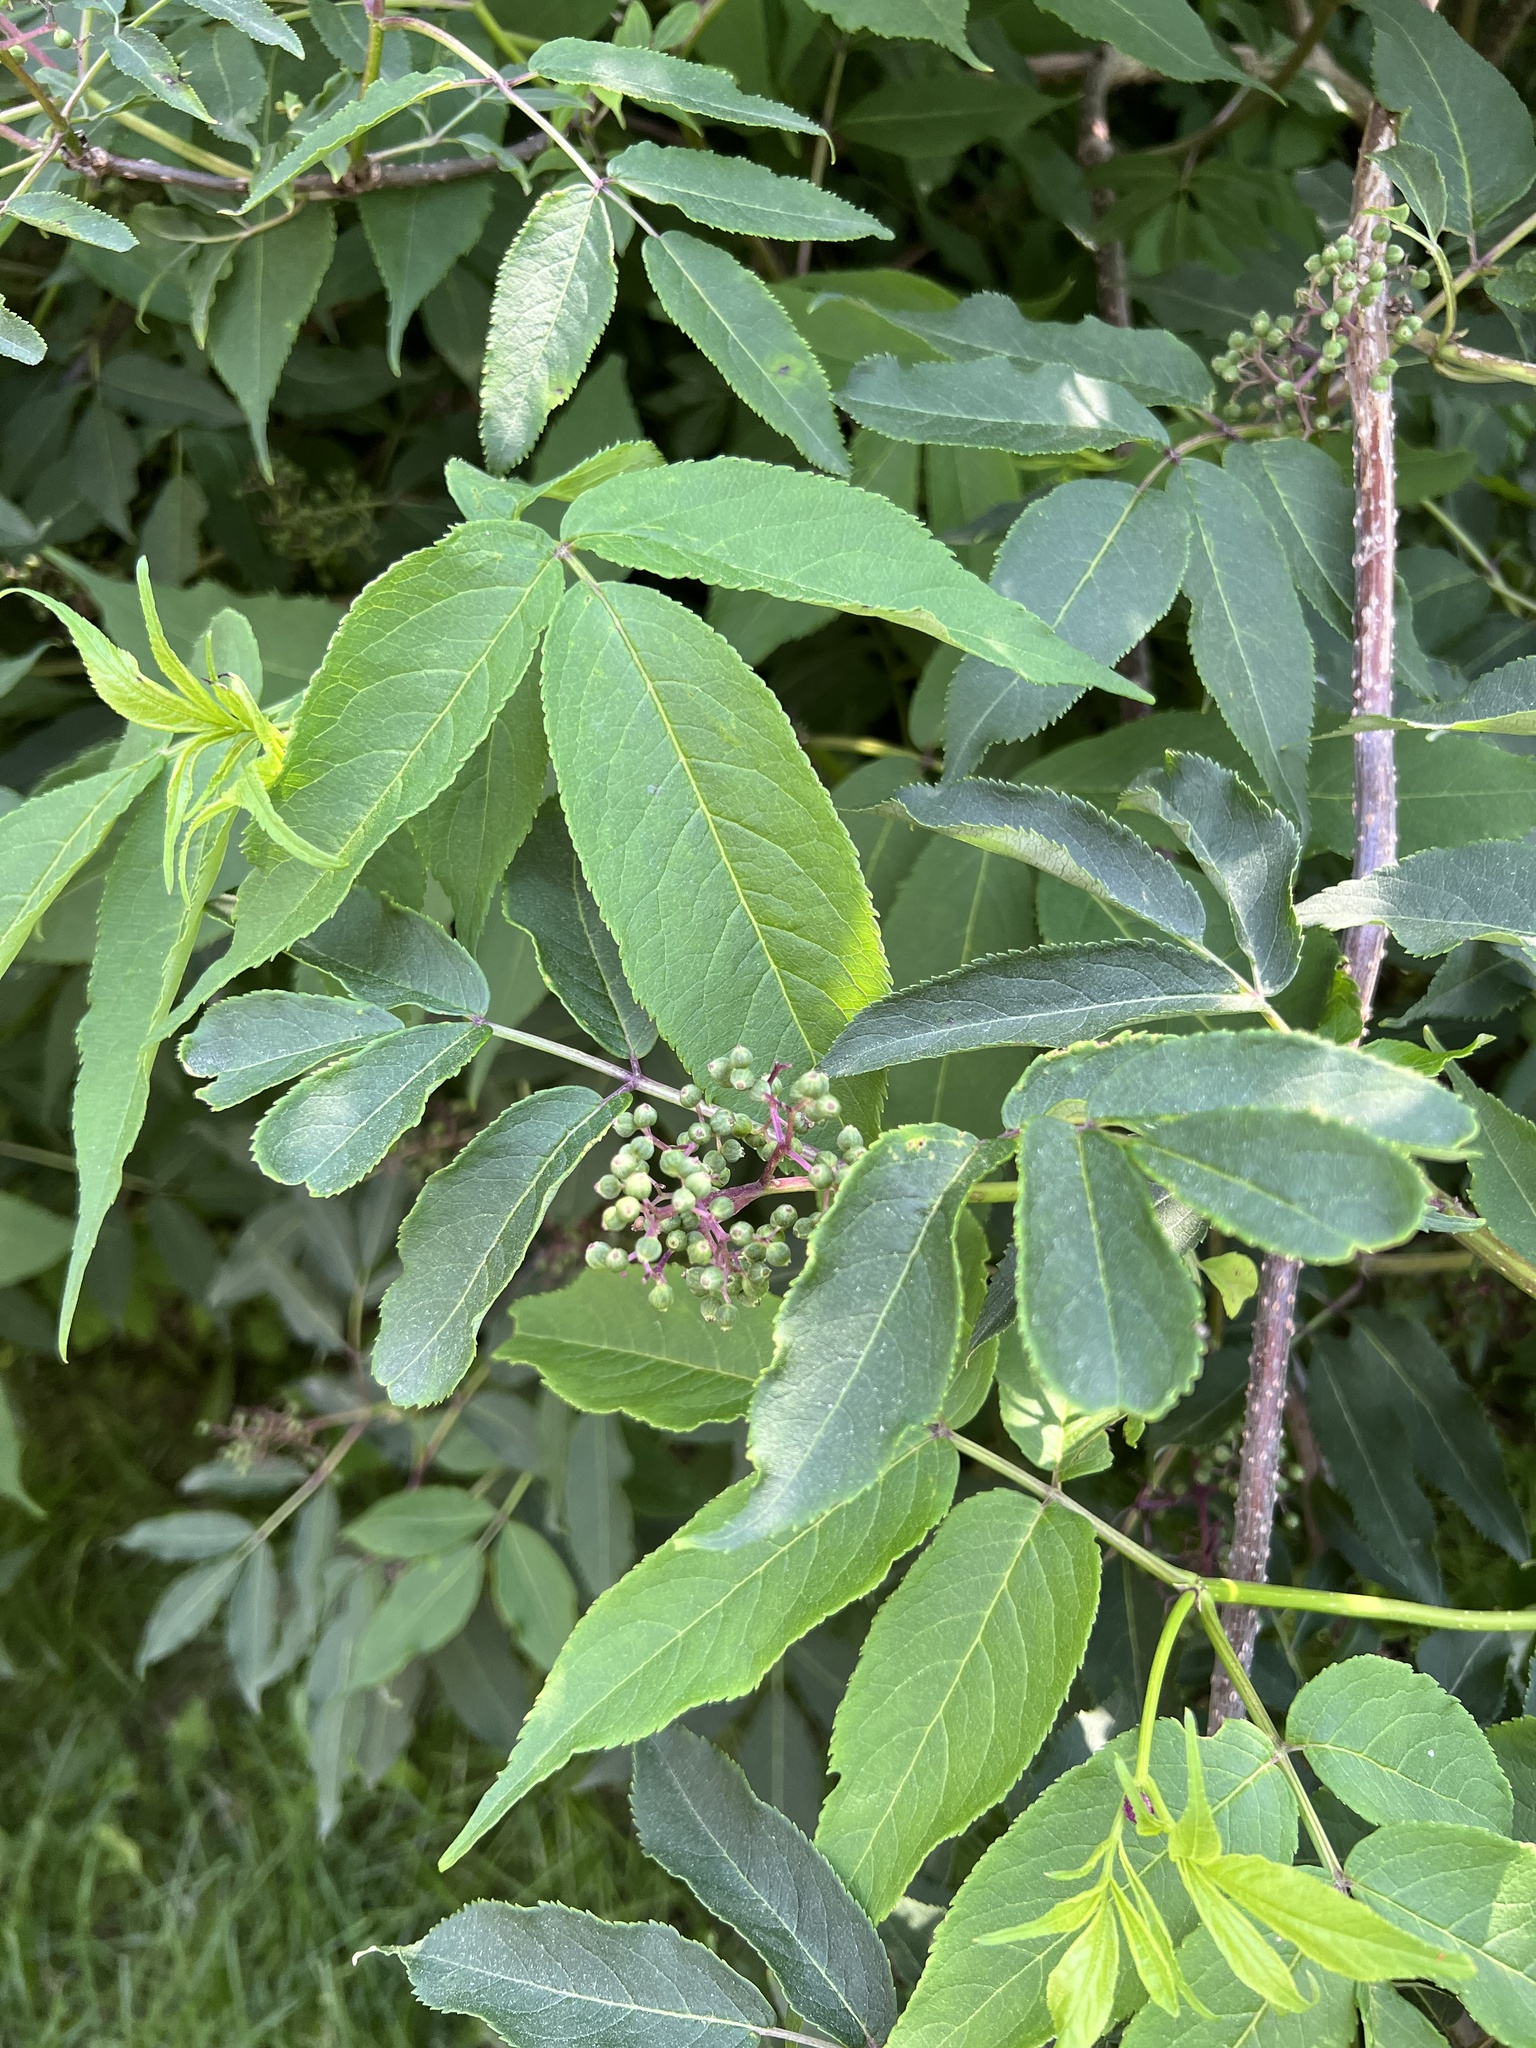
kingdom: Plantae
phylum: Tracheophyta
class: Magnoliopsida
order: Dipsacales
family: Viburnaceae
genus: Sambucus
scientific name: Sambucus racemosa
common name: Red-berried elder
